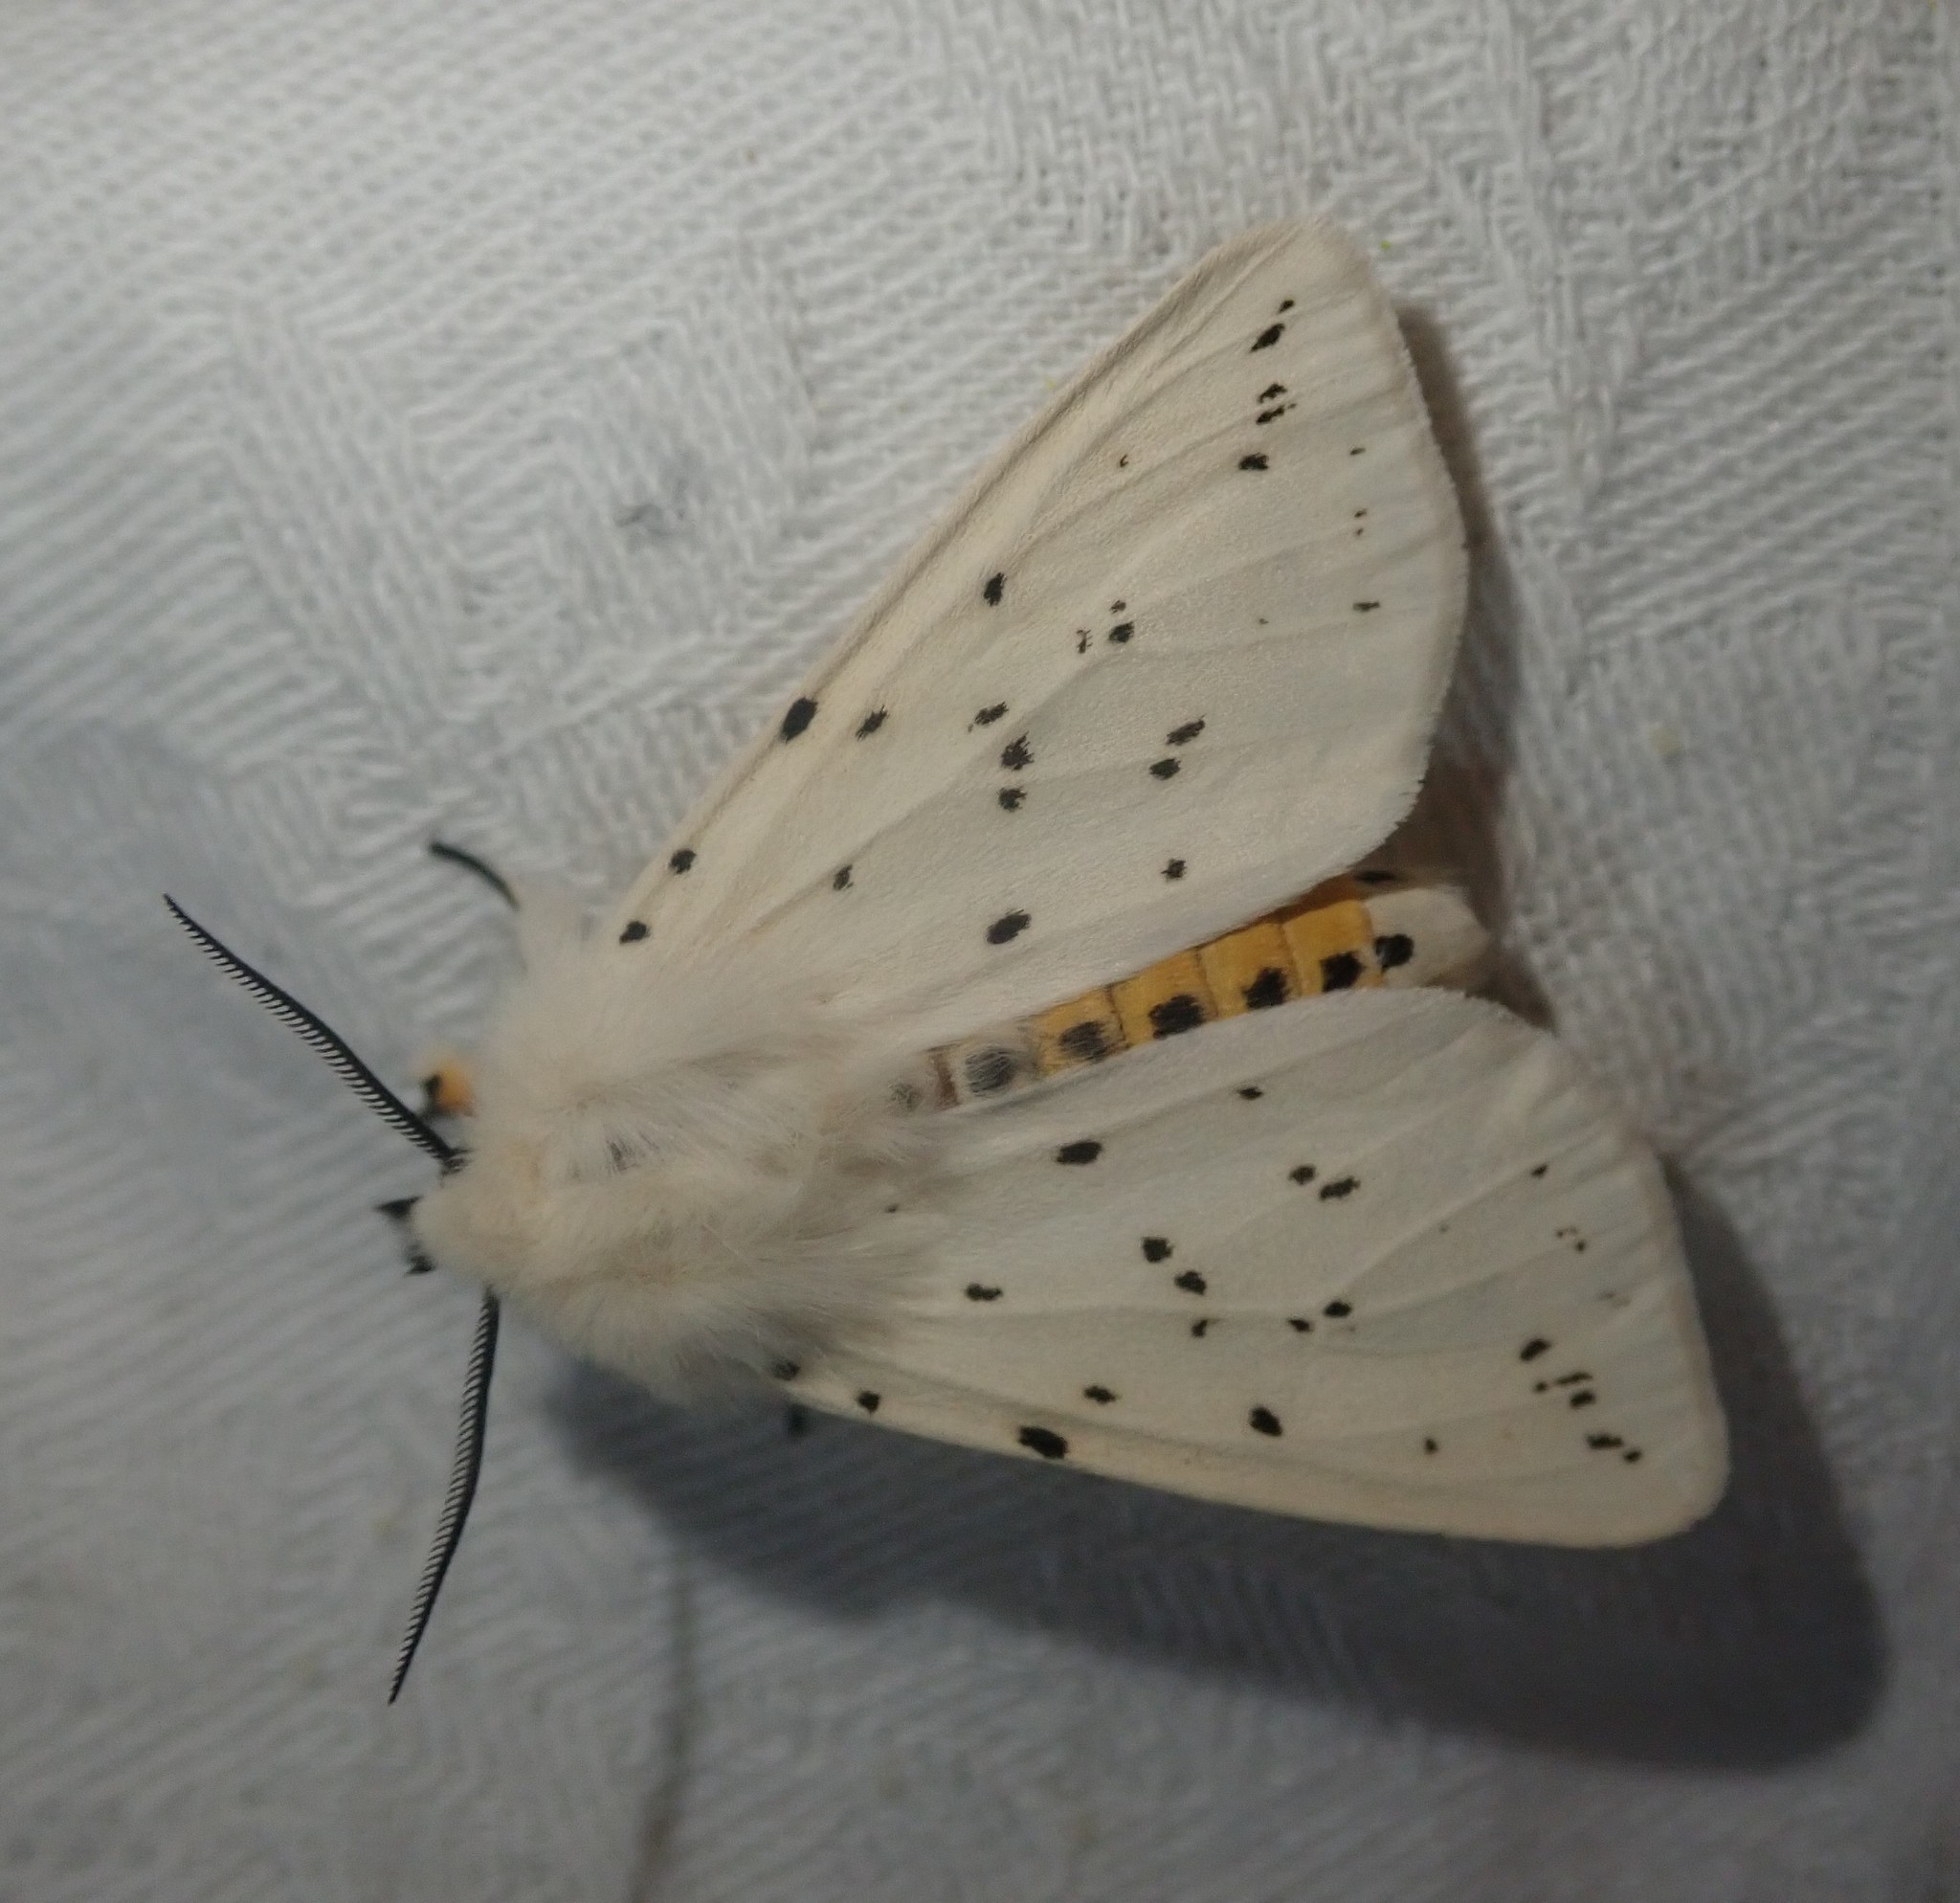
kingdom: Animalia
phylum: Arthropoda
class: Insecta
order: Lepidoptera
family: Erebidae
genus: Spilosoma
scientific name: Spilosoma lubricipeda
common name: White ermine
